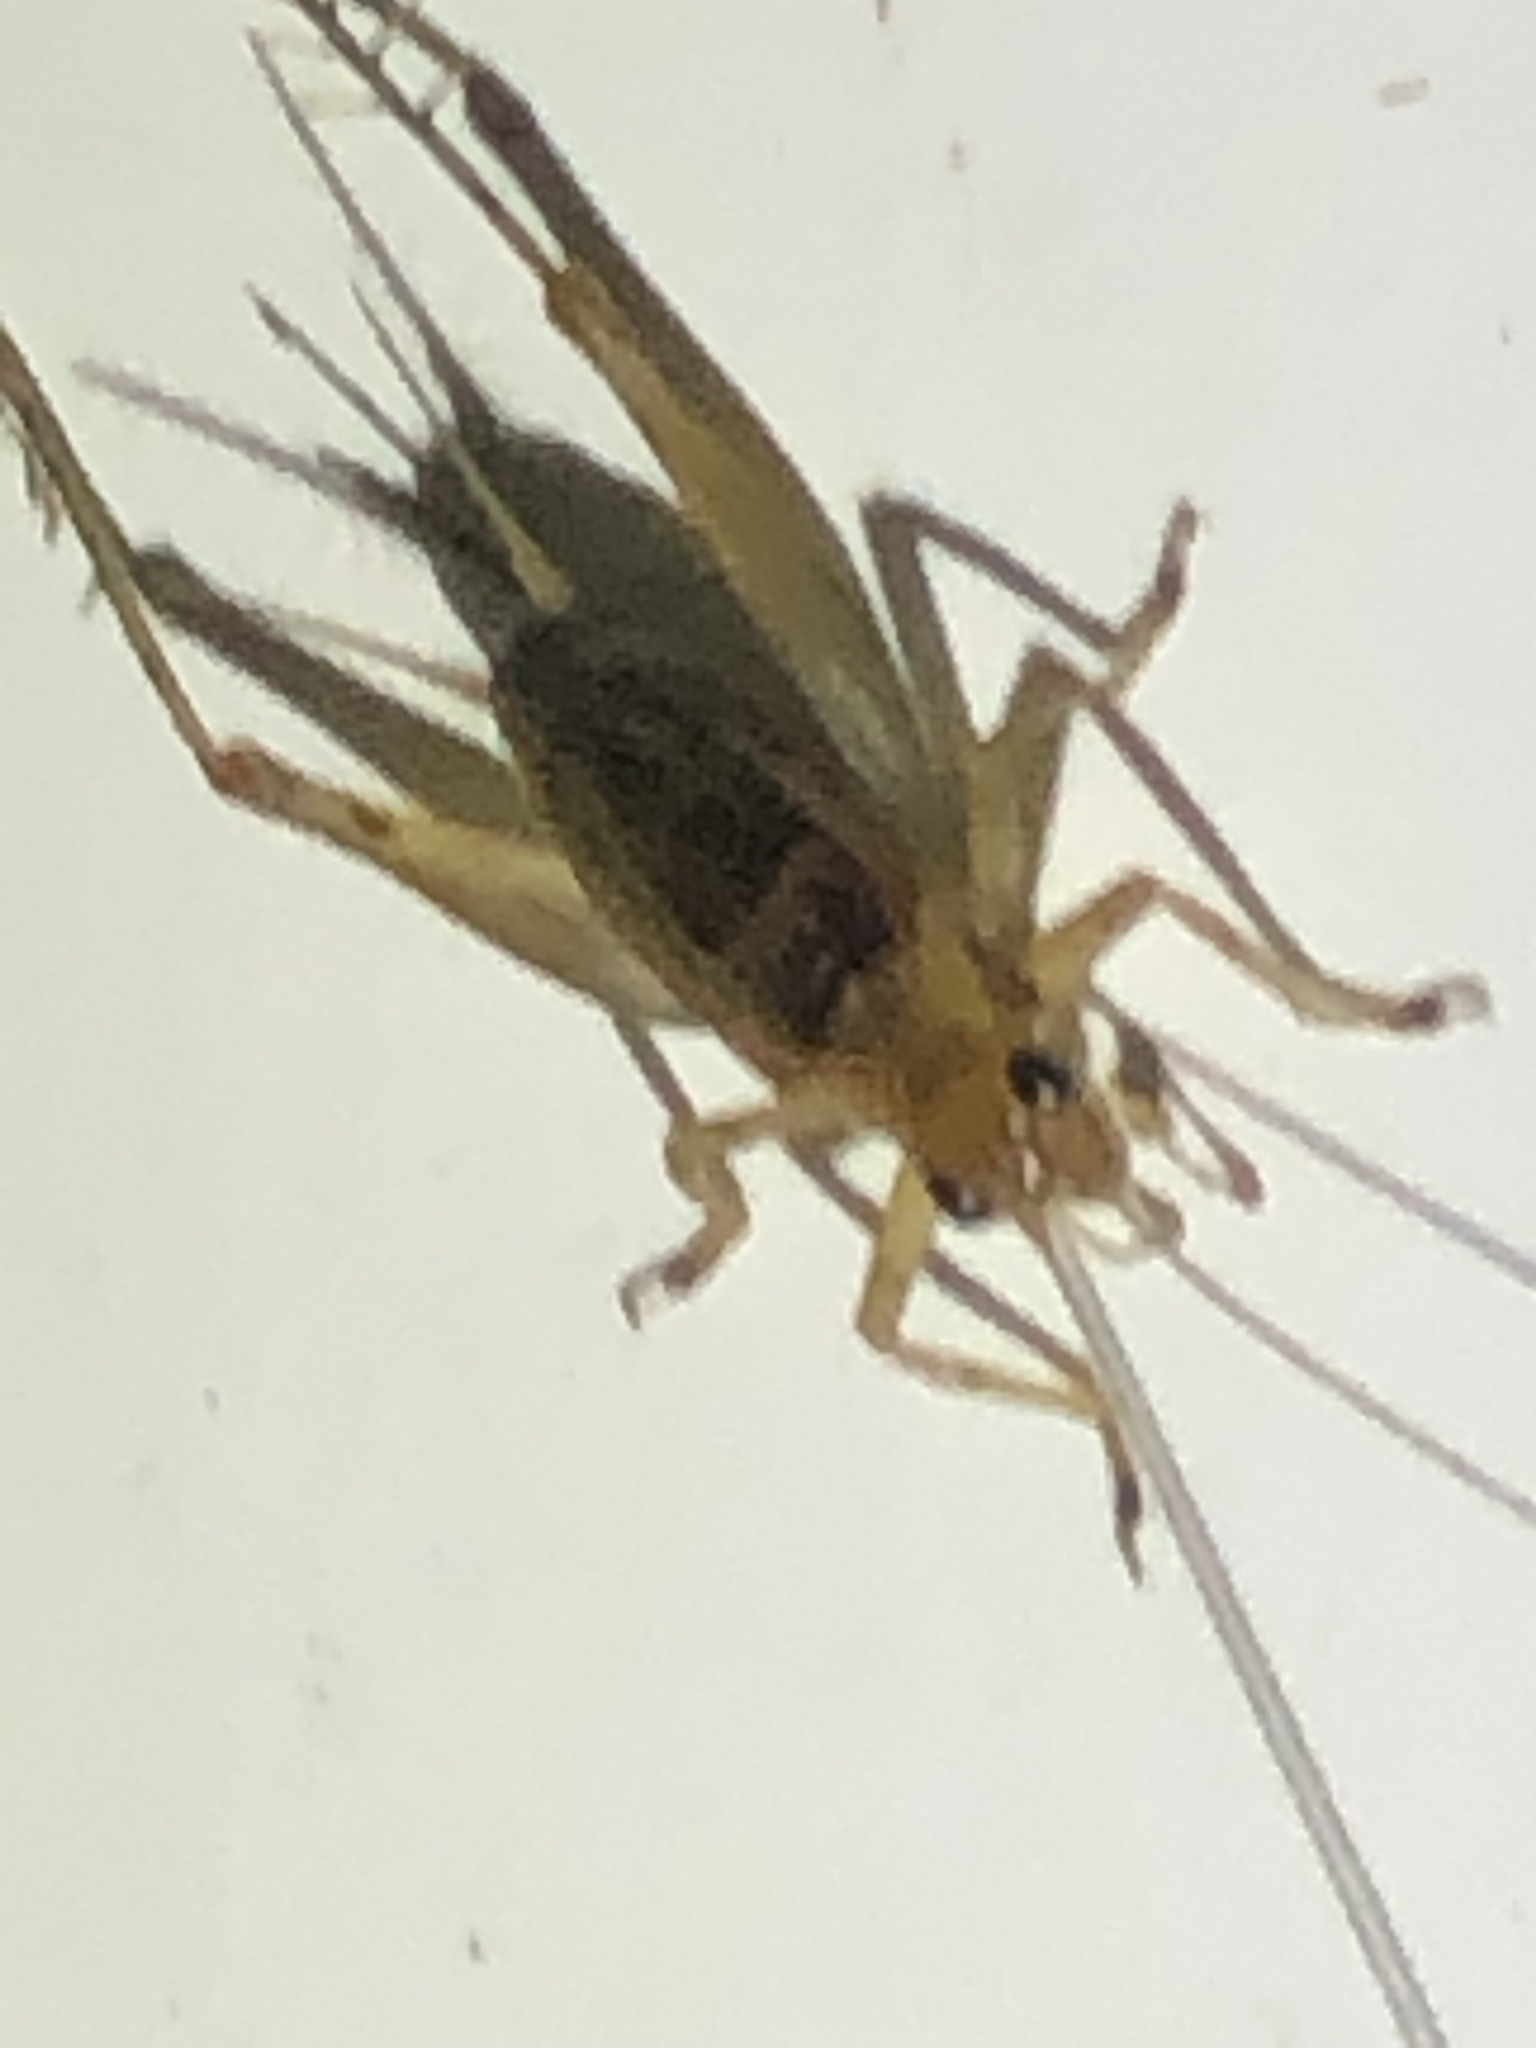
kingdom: Animalia
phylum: Arthropoda
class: Insecta
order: Orthoptera
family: Trigonidiidae
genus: Anaxipha
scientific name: Anaxipha exigua
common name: Say's bush cricket
